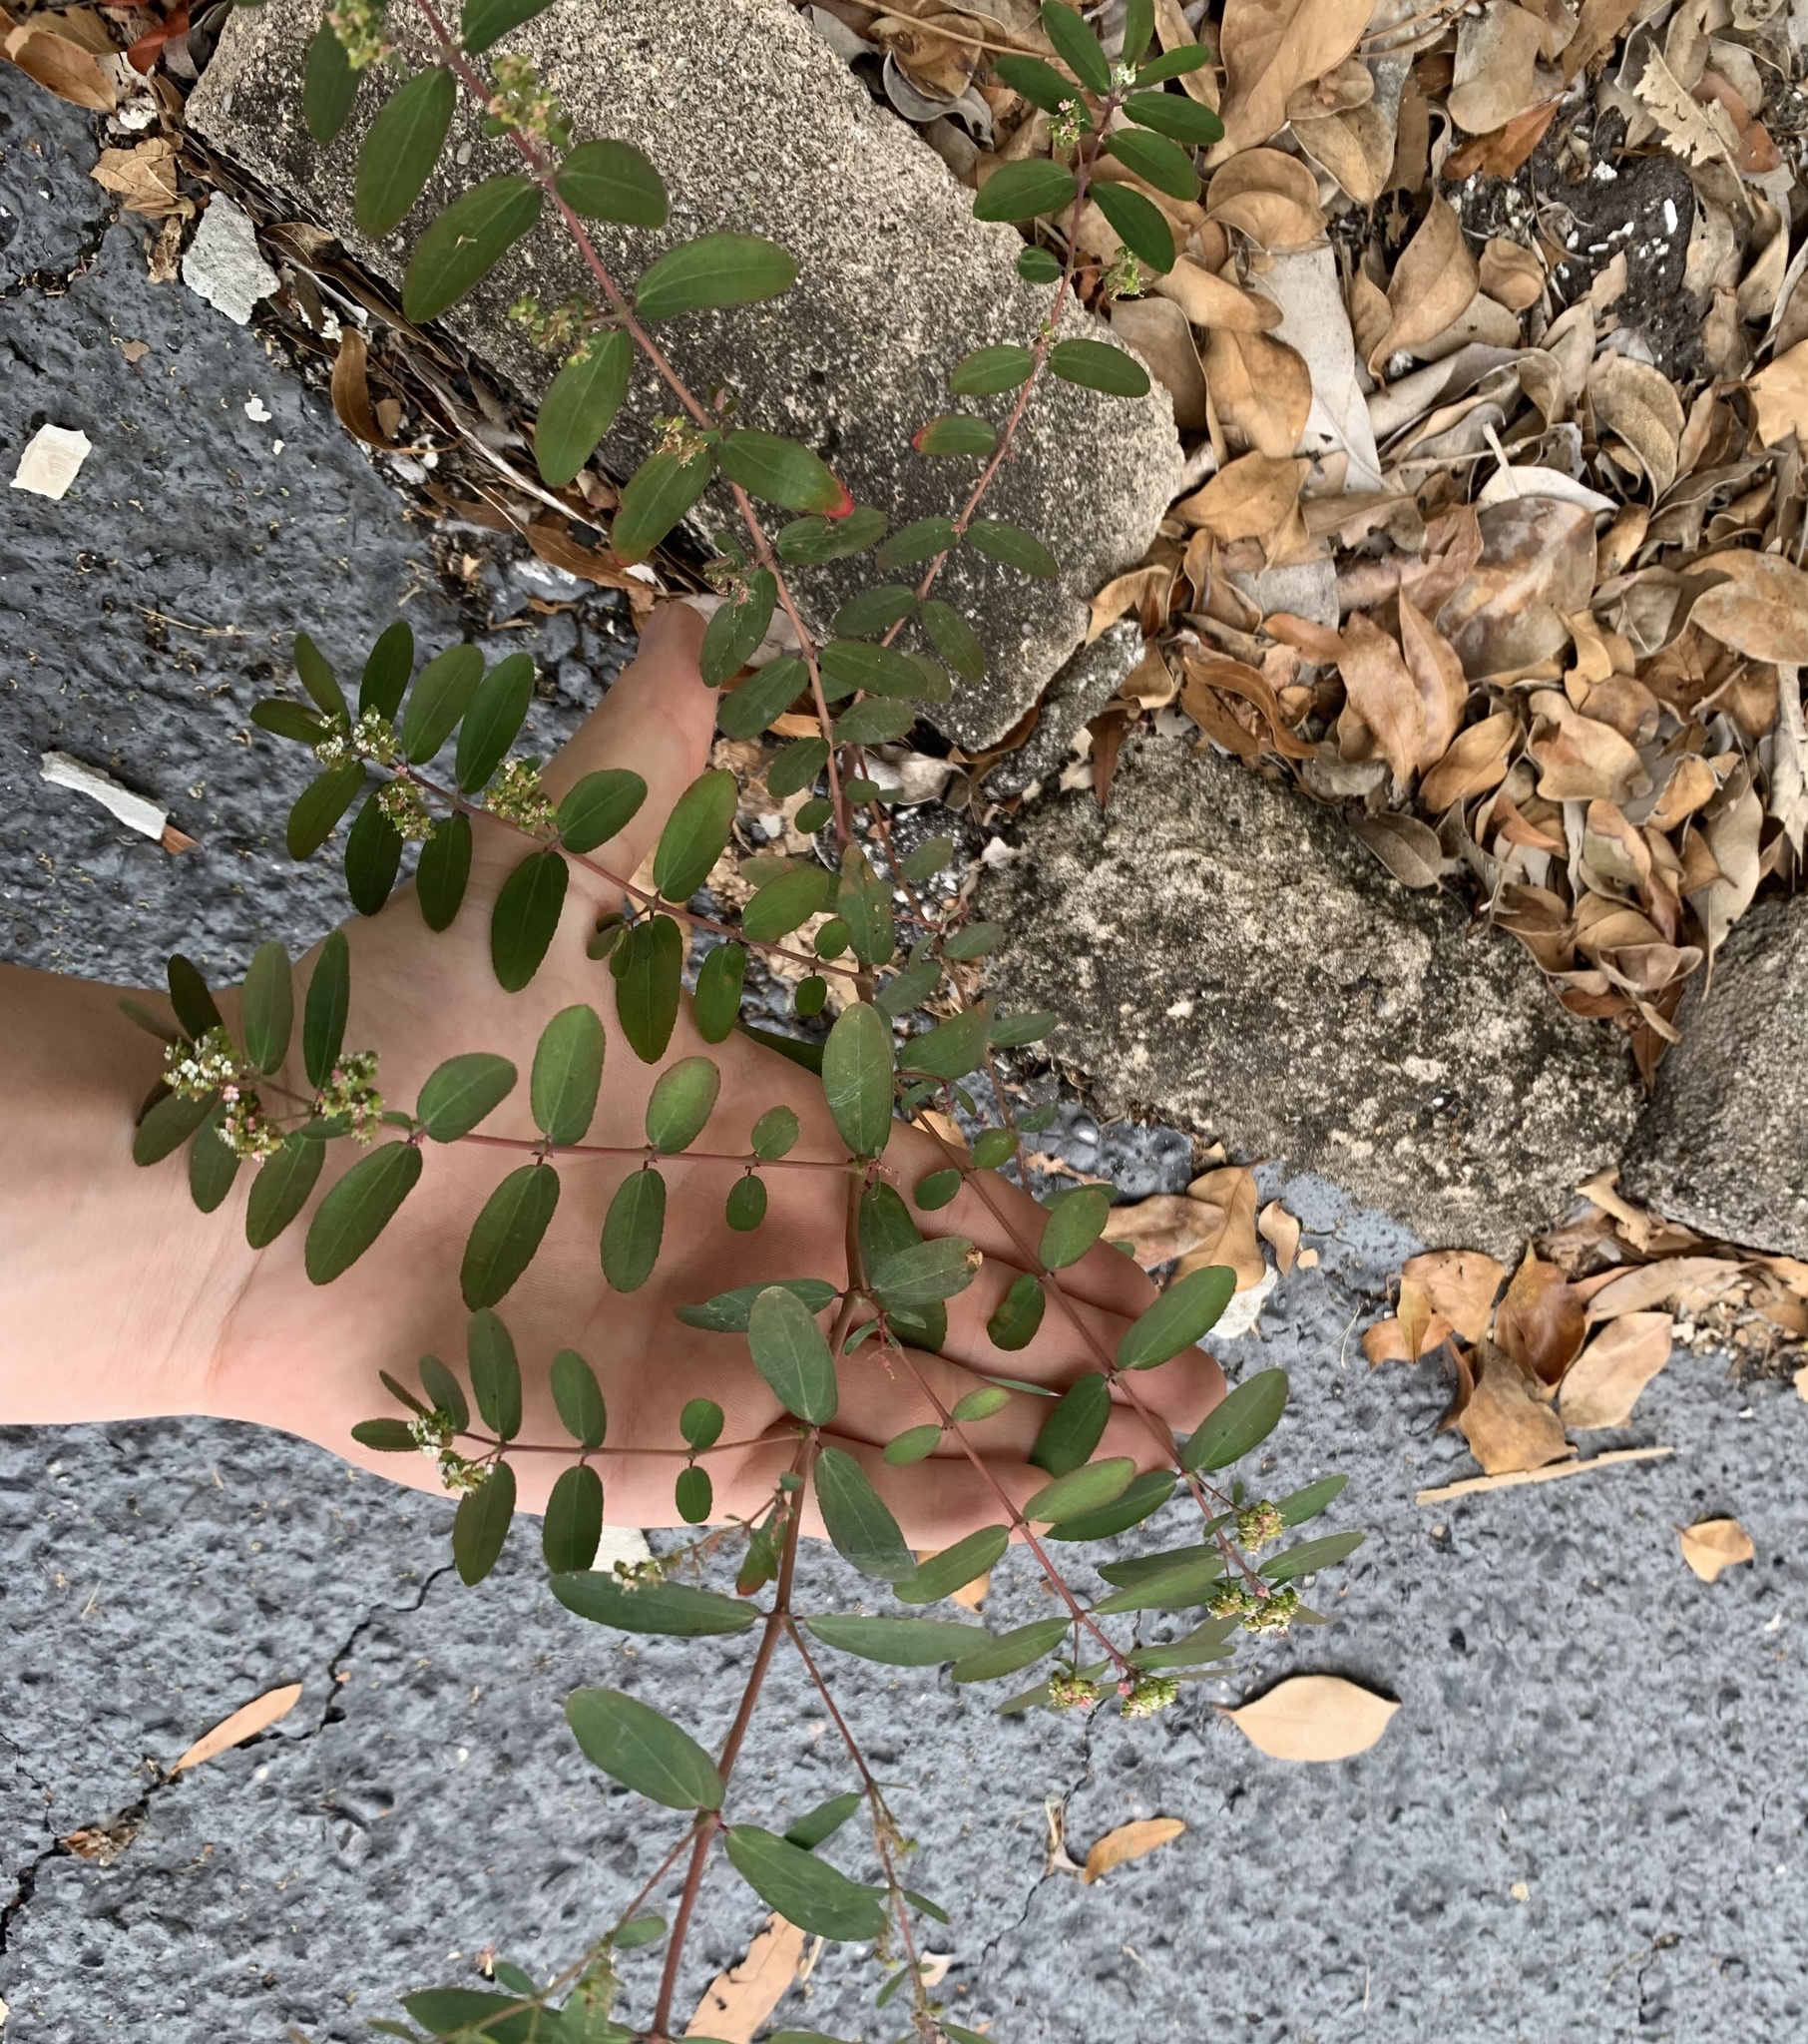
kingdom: Plantae
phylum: Tracheophyta
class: Magnoliopsida
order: Malpighiales
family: Euphorbiaceae
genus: Euphorbia
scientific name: Euphorbia hypericifolia
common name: Graceful sandmat
